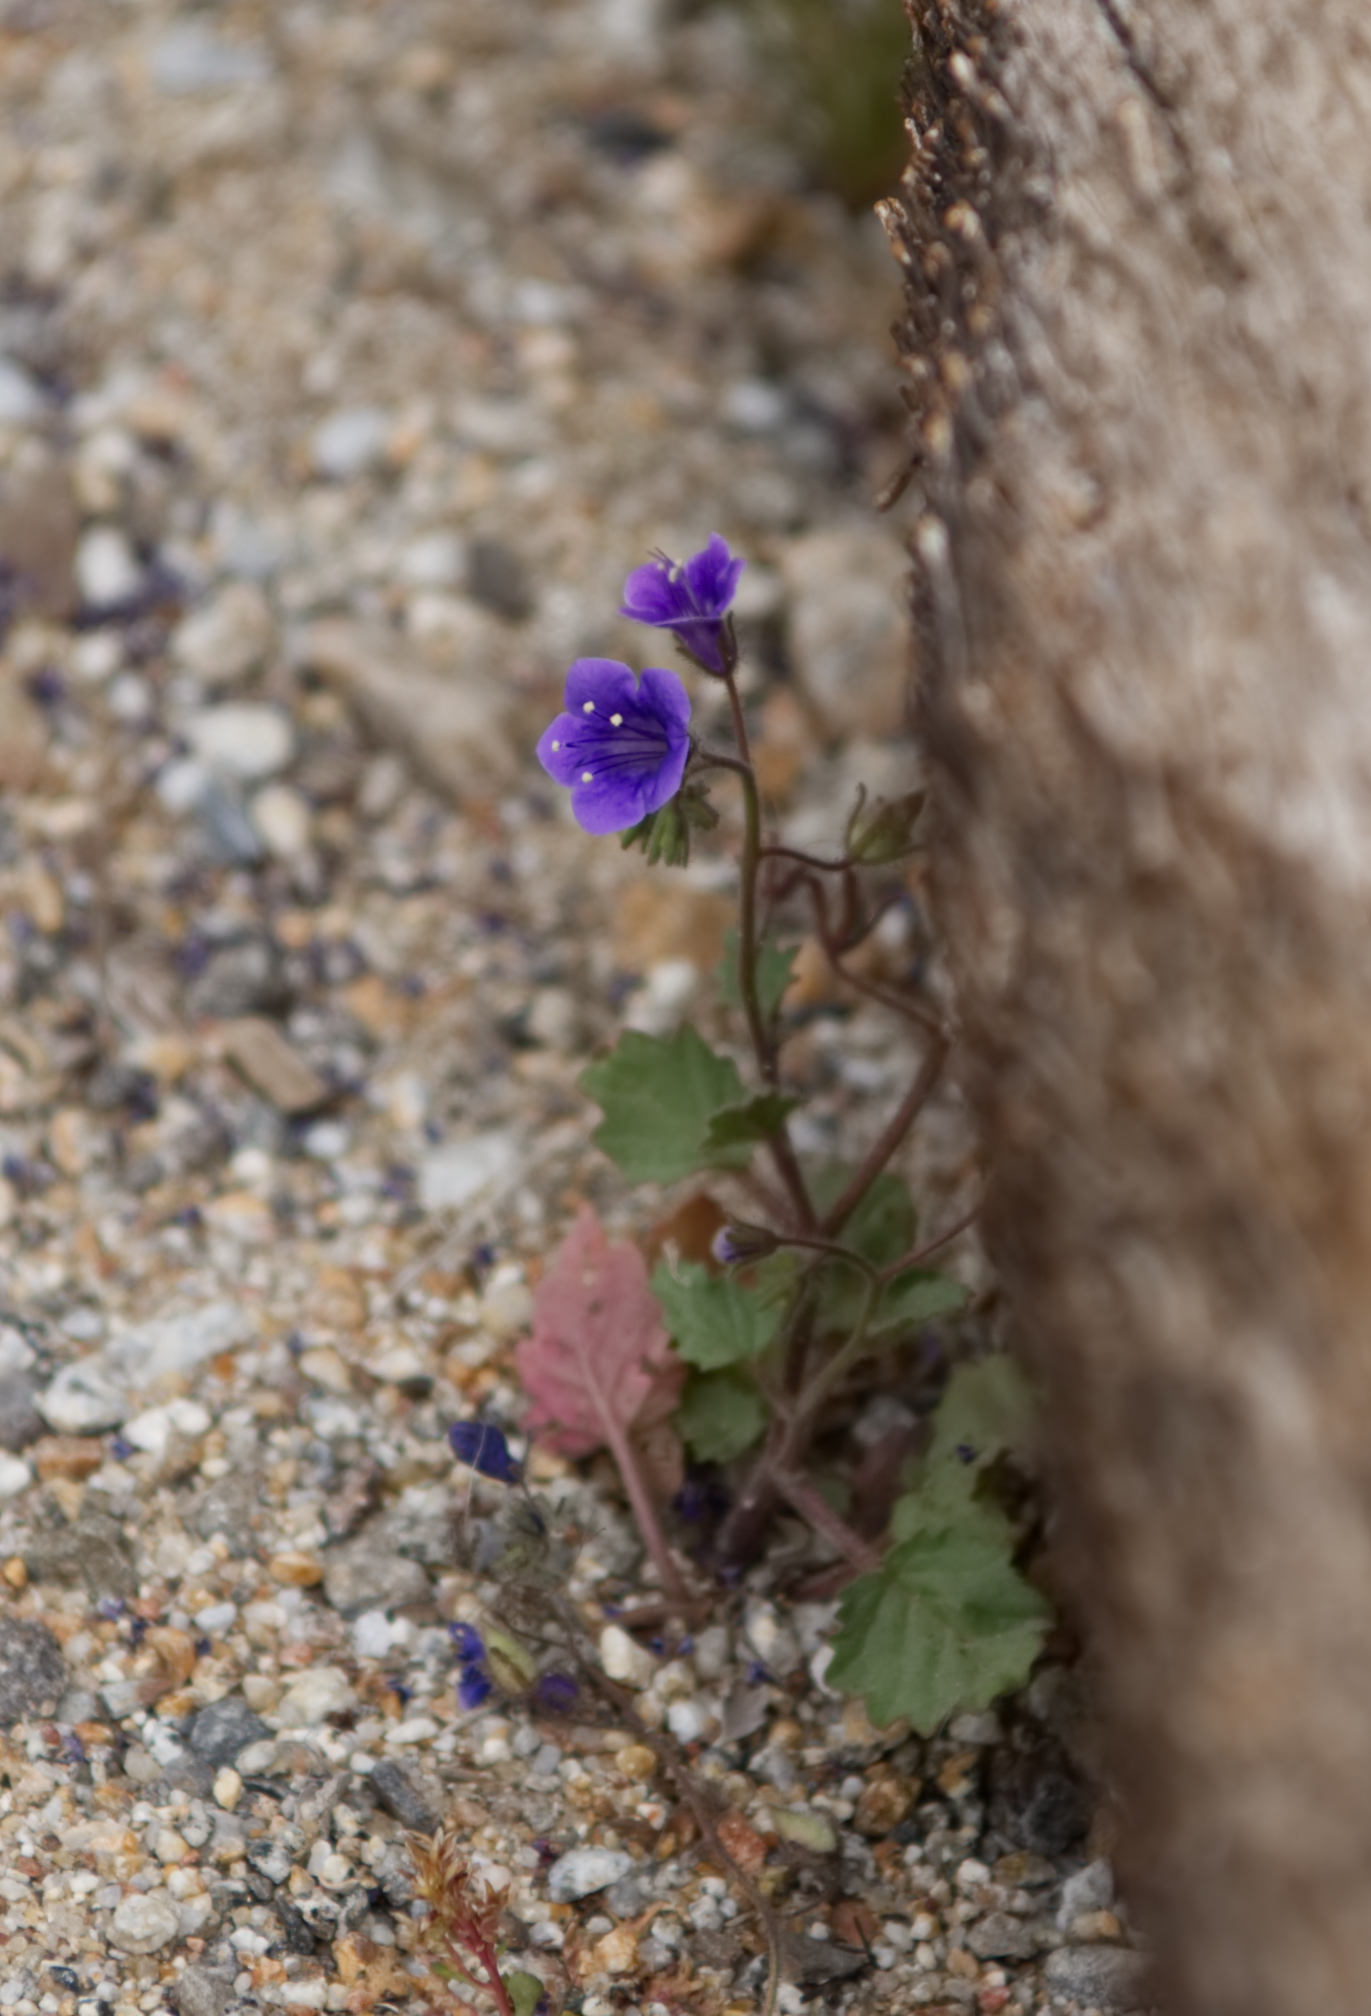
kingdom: Plantae
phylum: Tracheophyta
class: Magnoliopsida
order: Boraginales
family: Hydrophyllaceae
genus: Phacelia
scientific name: Phacelia minor
